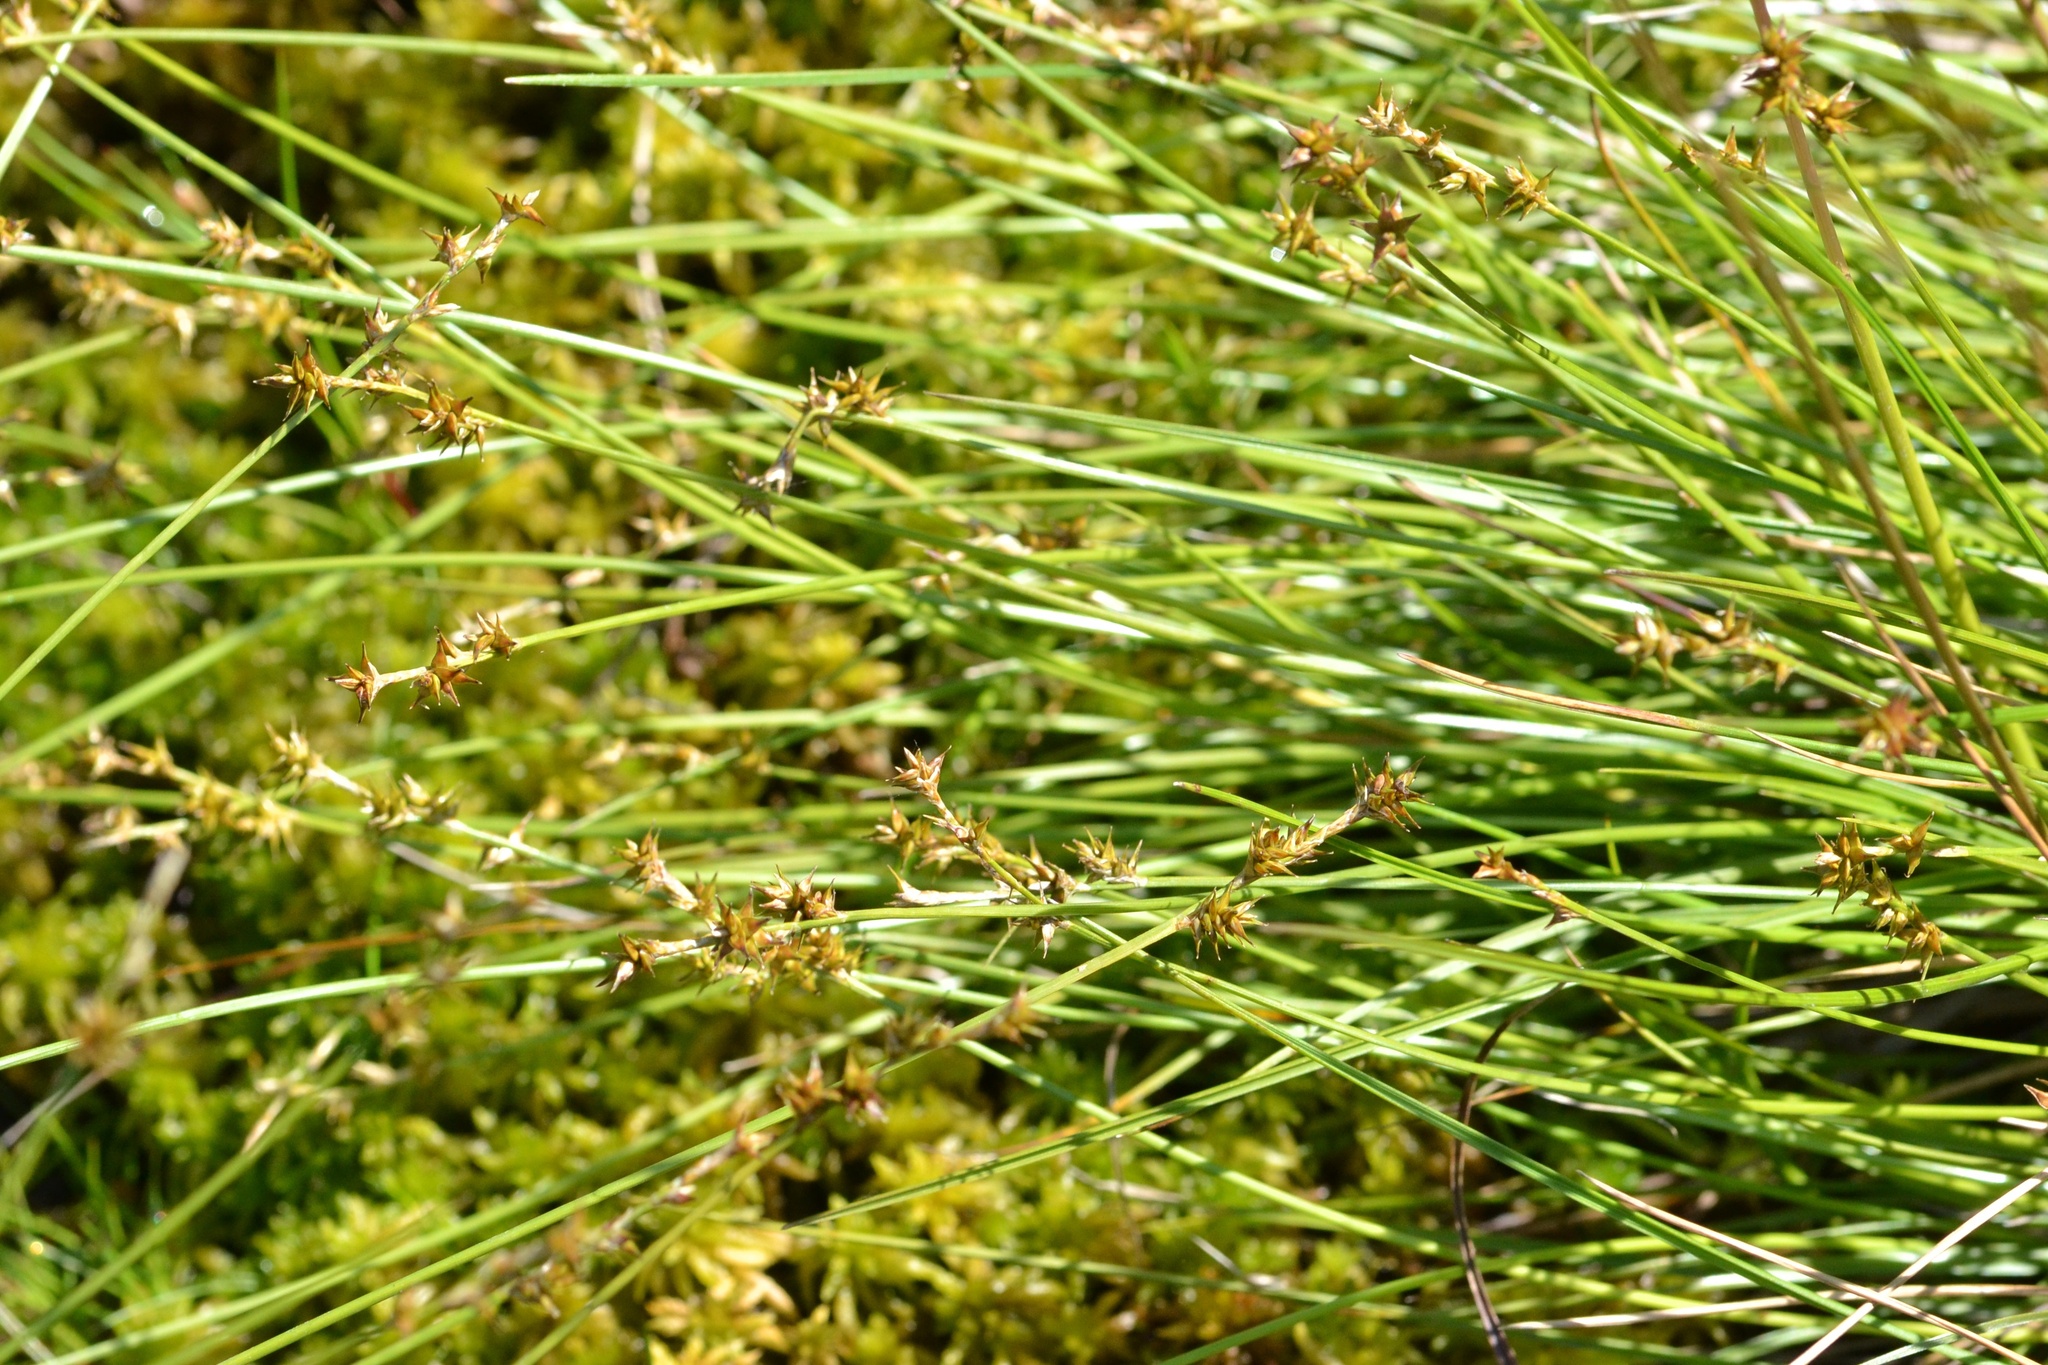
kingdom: Plantae
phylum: Tracheophyta
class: Liliopsida
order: Poales
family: Cyperaceae
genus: Carex
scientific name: Carex echinata
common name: Star sedge
